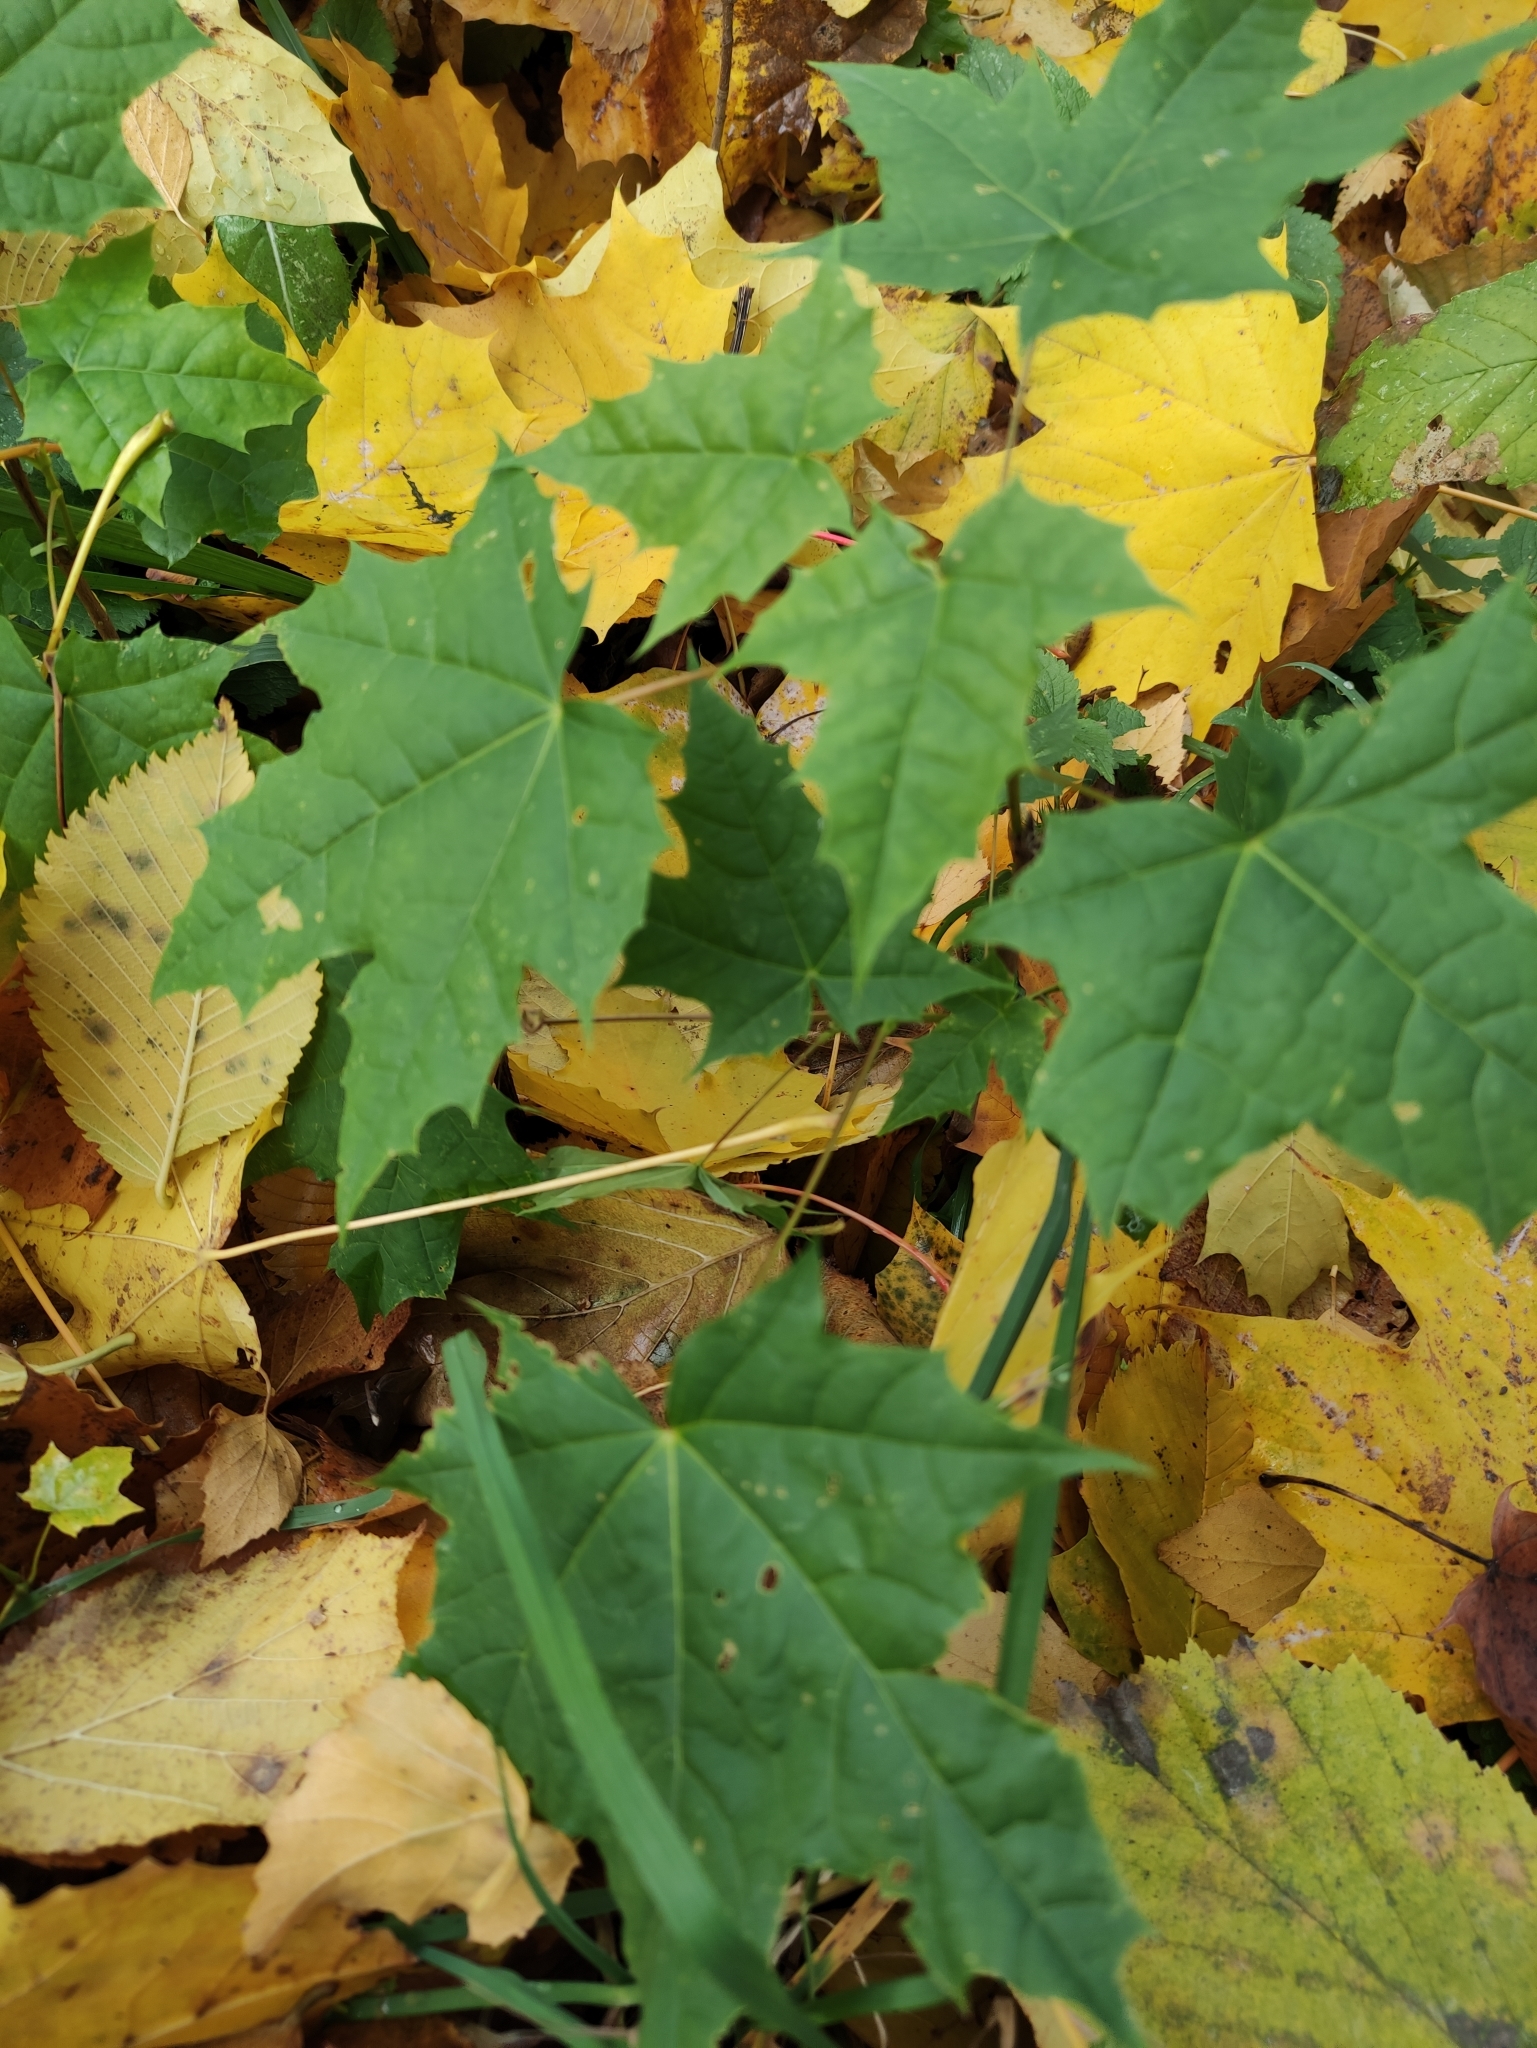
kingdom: Plantae
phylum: Tracheophyta
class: Magnoliopsida
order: Sapindales
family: Sapindaceae
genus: Acer
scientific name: Acer platanoides
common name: Norway maple
